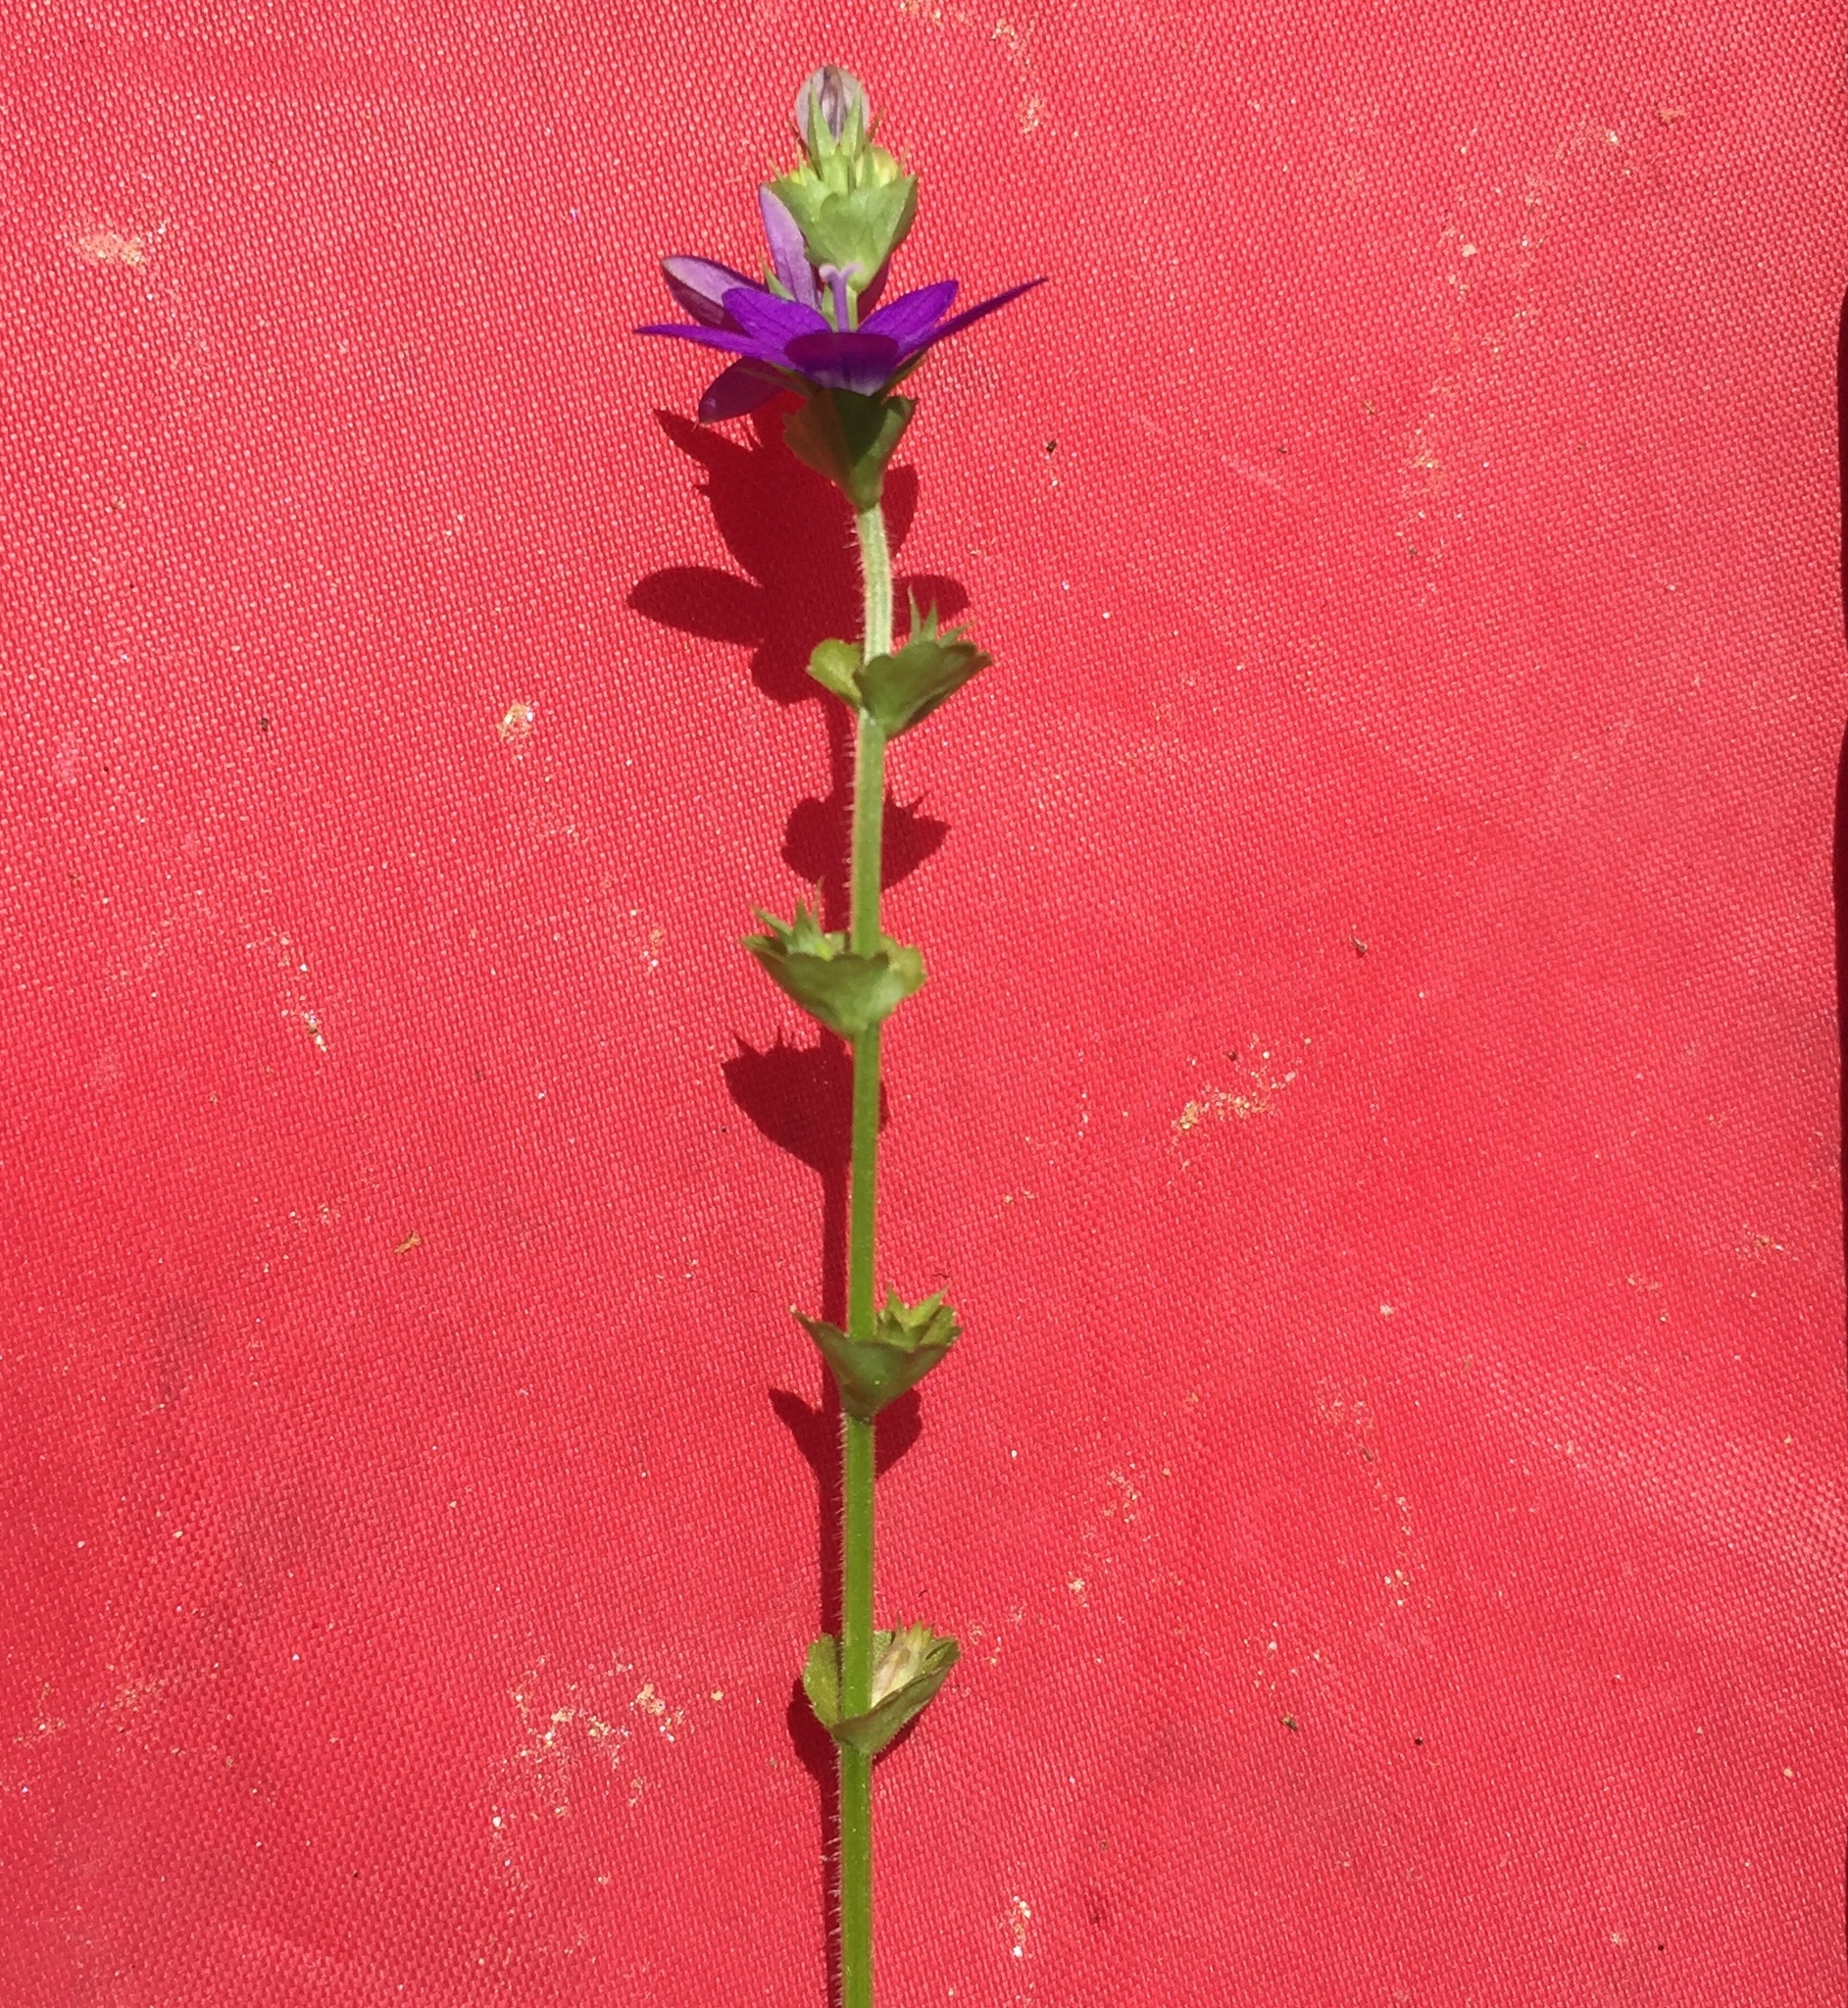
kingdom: Plantae
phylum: Tracheophyta
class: Magnoliopsida
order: Asterales
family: Campanulaceae
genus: Triodanis
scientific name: Triodanis perfoliata
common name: Clasping venus' looking-glass
